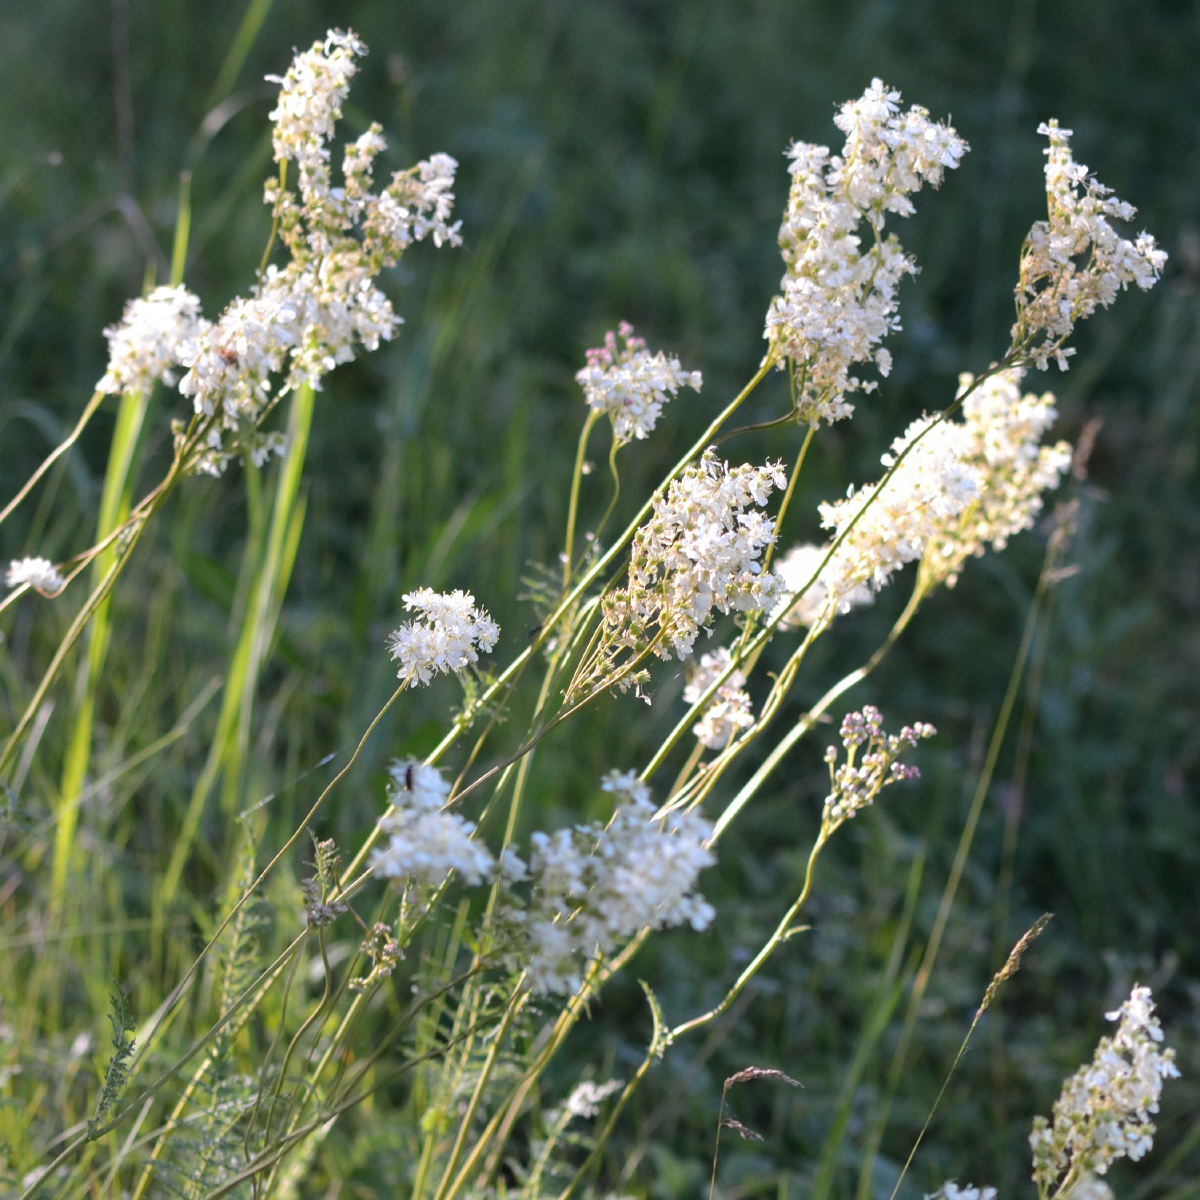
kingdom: Plantae
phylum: Tracheophyta
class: Magnoliopsida
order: Rosales
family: Rosaceae
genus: Filipendula
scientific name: Filipendula vulgaris
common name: Dropwort
